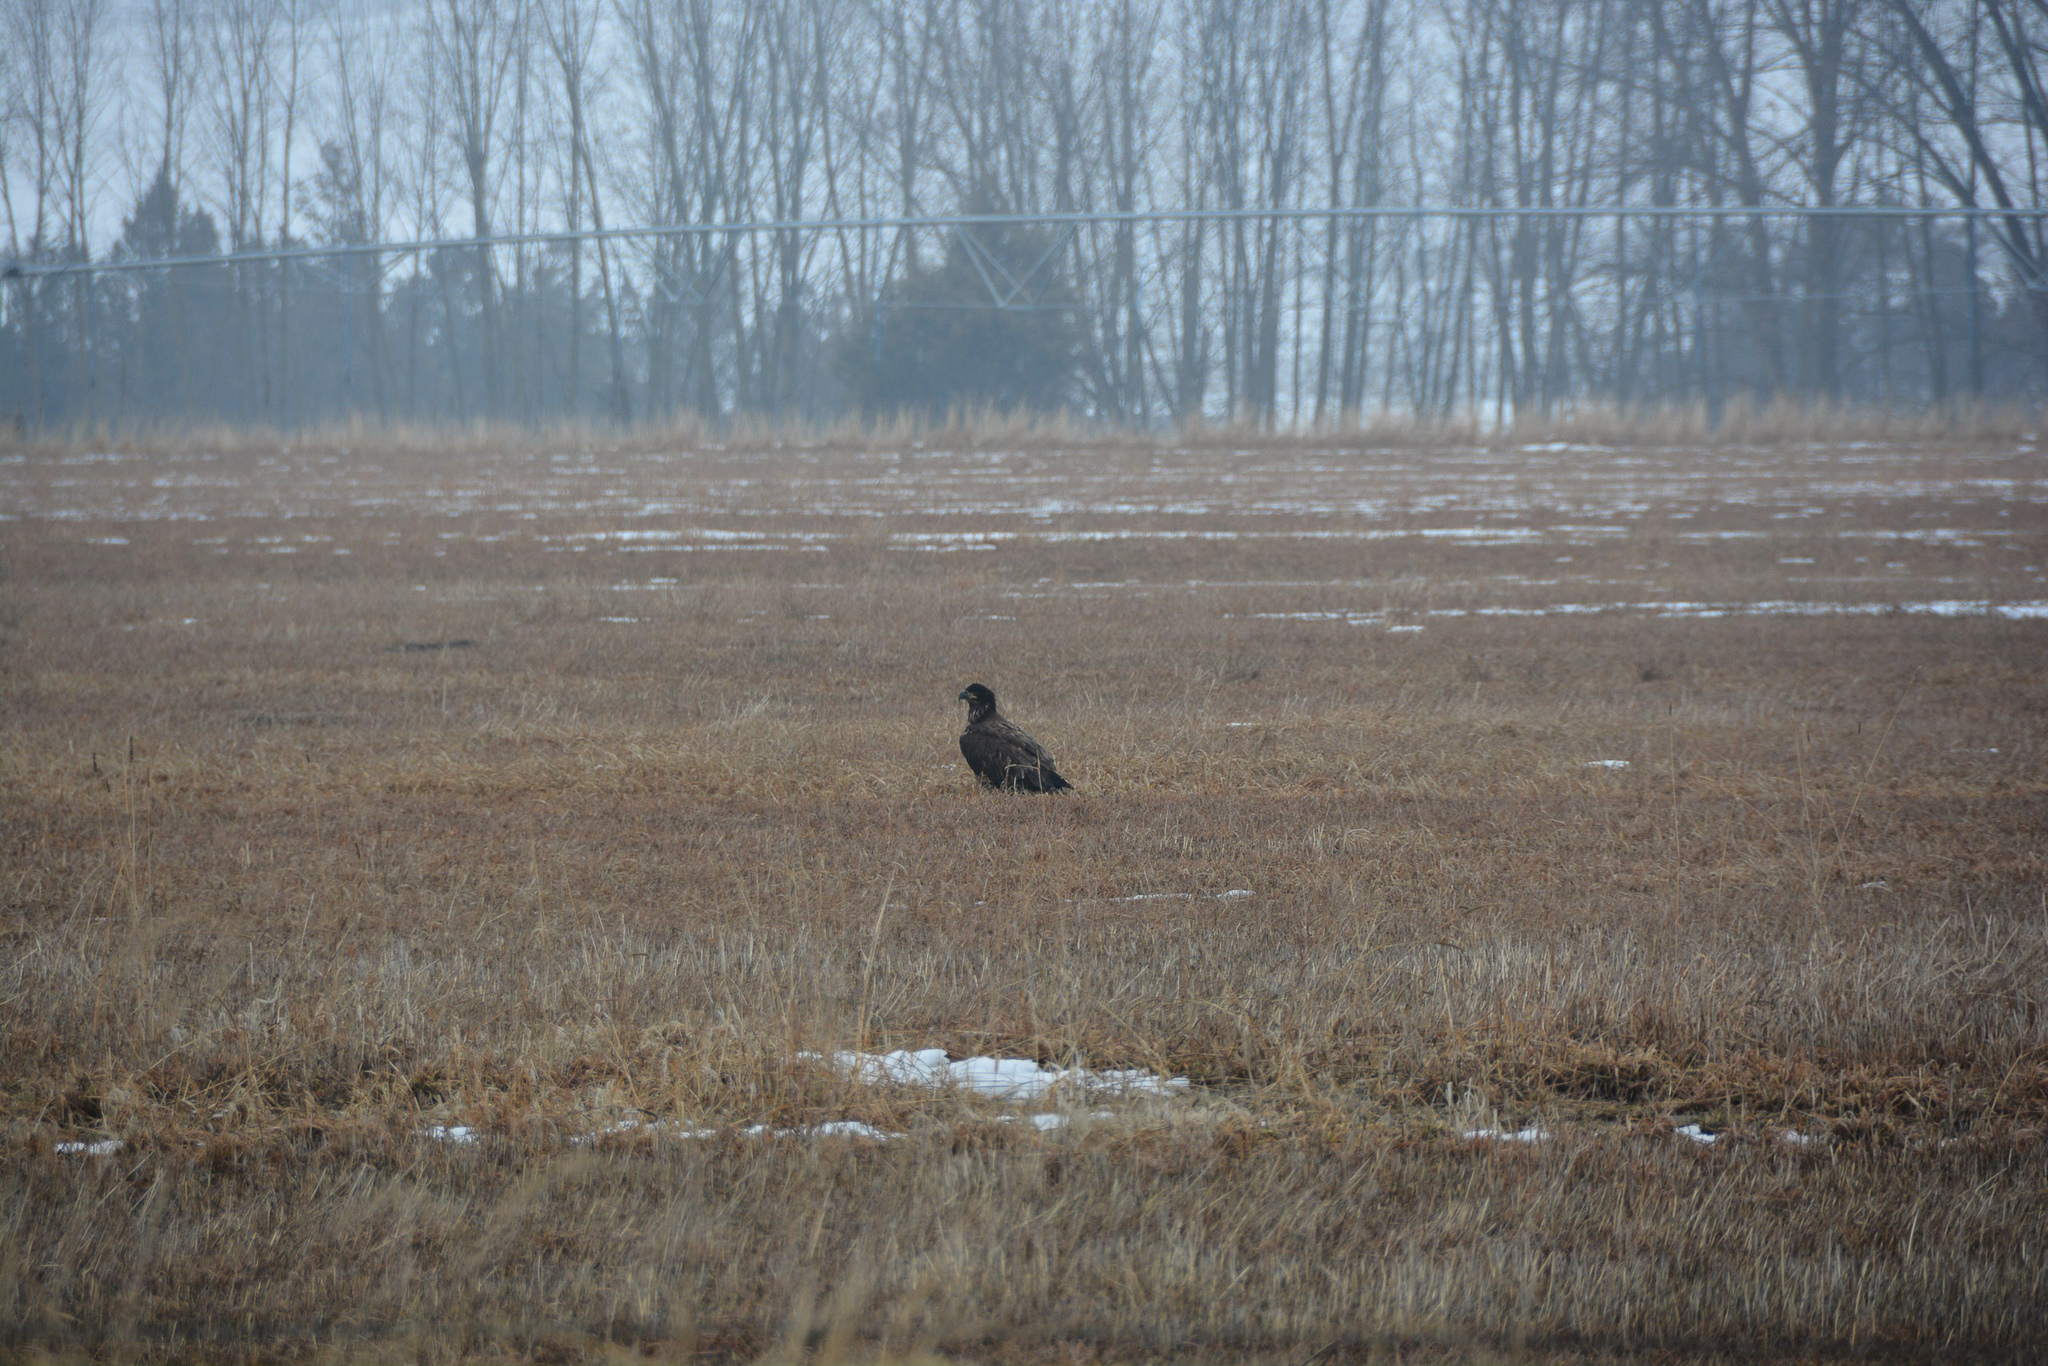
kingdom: Animalia
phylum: Chordata
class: Aves
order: Accipitriformes
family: Accipitridae
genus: Haliaeetus
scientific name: Haliaeetus leucocephalus
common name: Bald eagle
